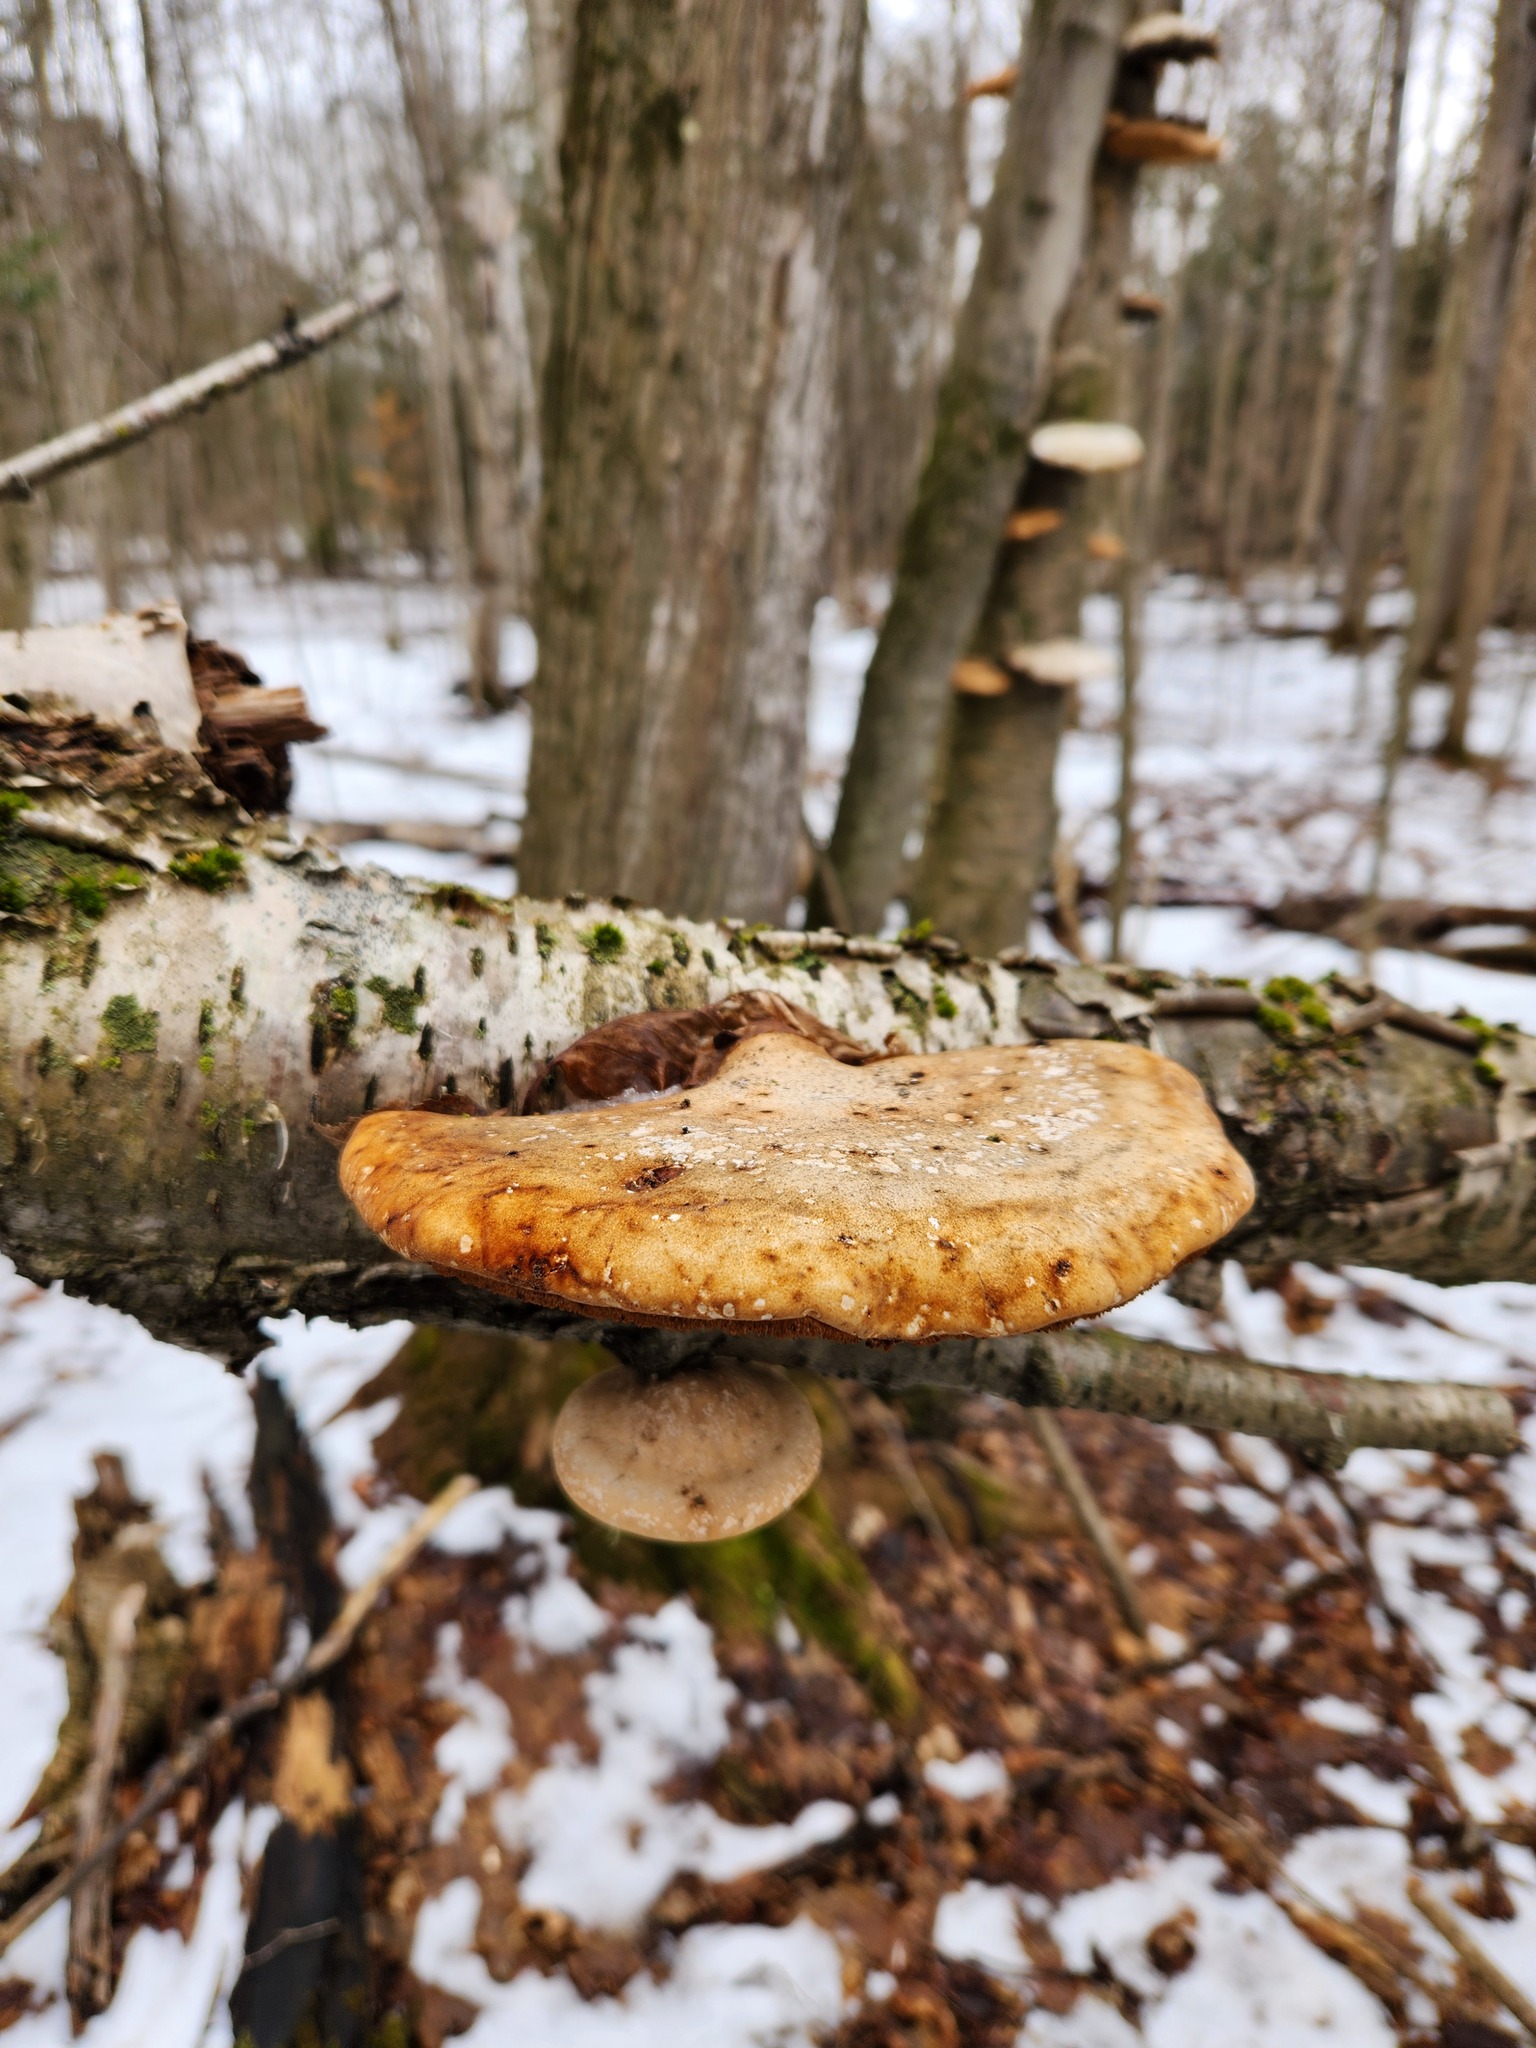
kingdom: Fungi
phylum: Basidiomycota
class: Agaricomycetes
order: Polyporales
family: Fomitopsidaceae
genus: Fomitopsis
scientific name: Fomitopsis betulina
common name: Birch polypore
